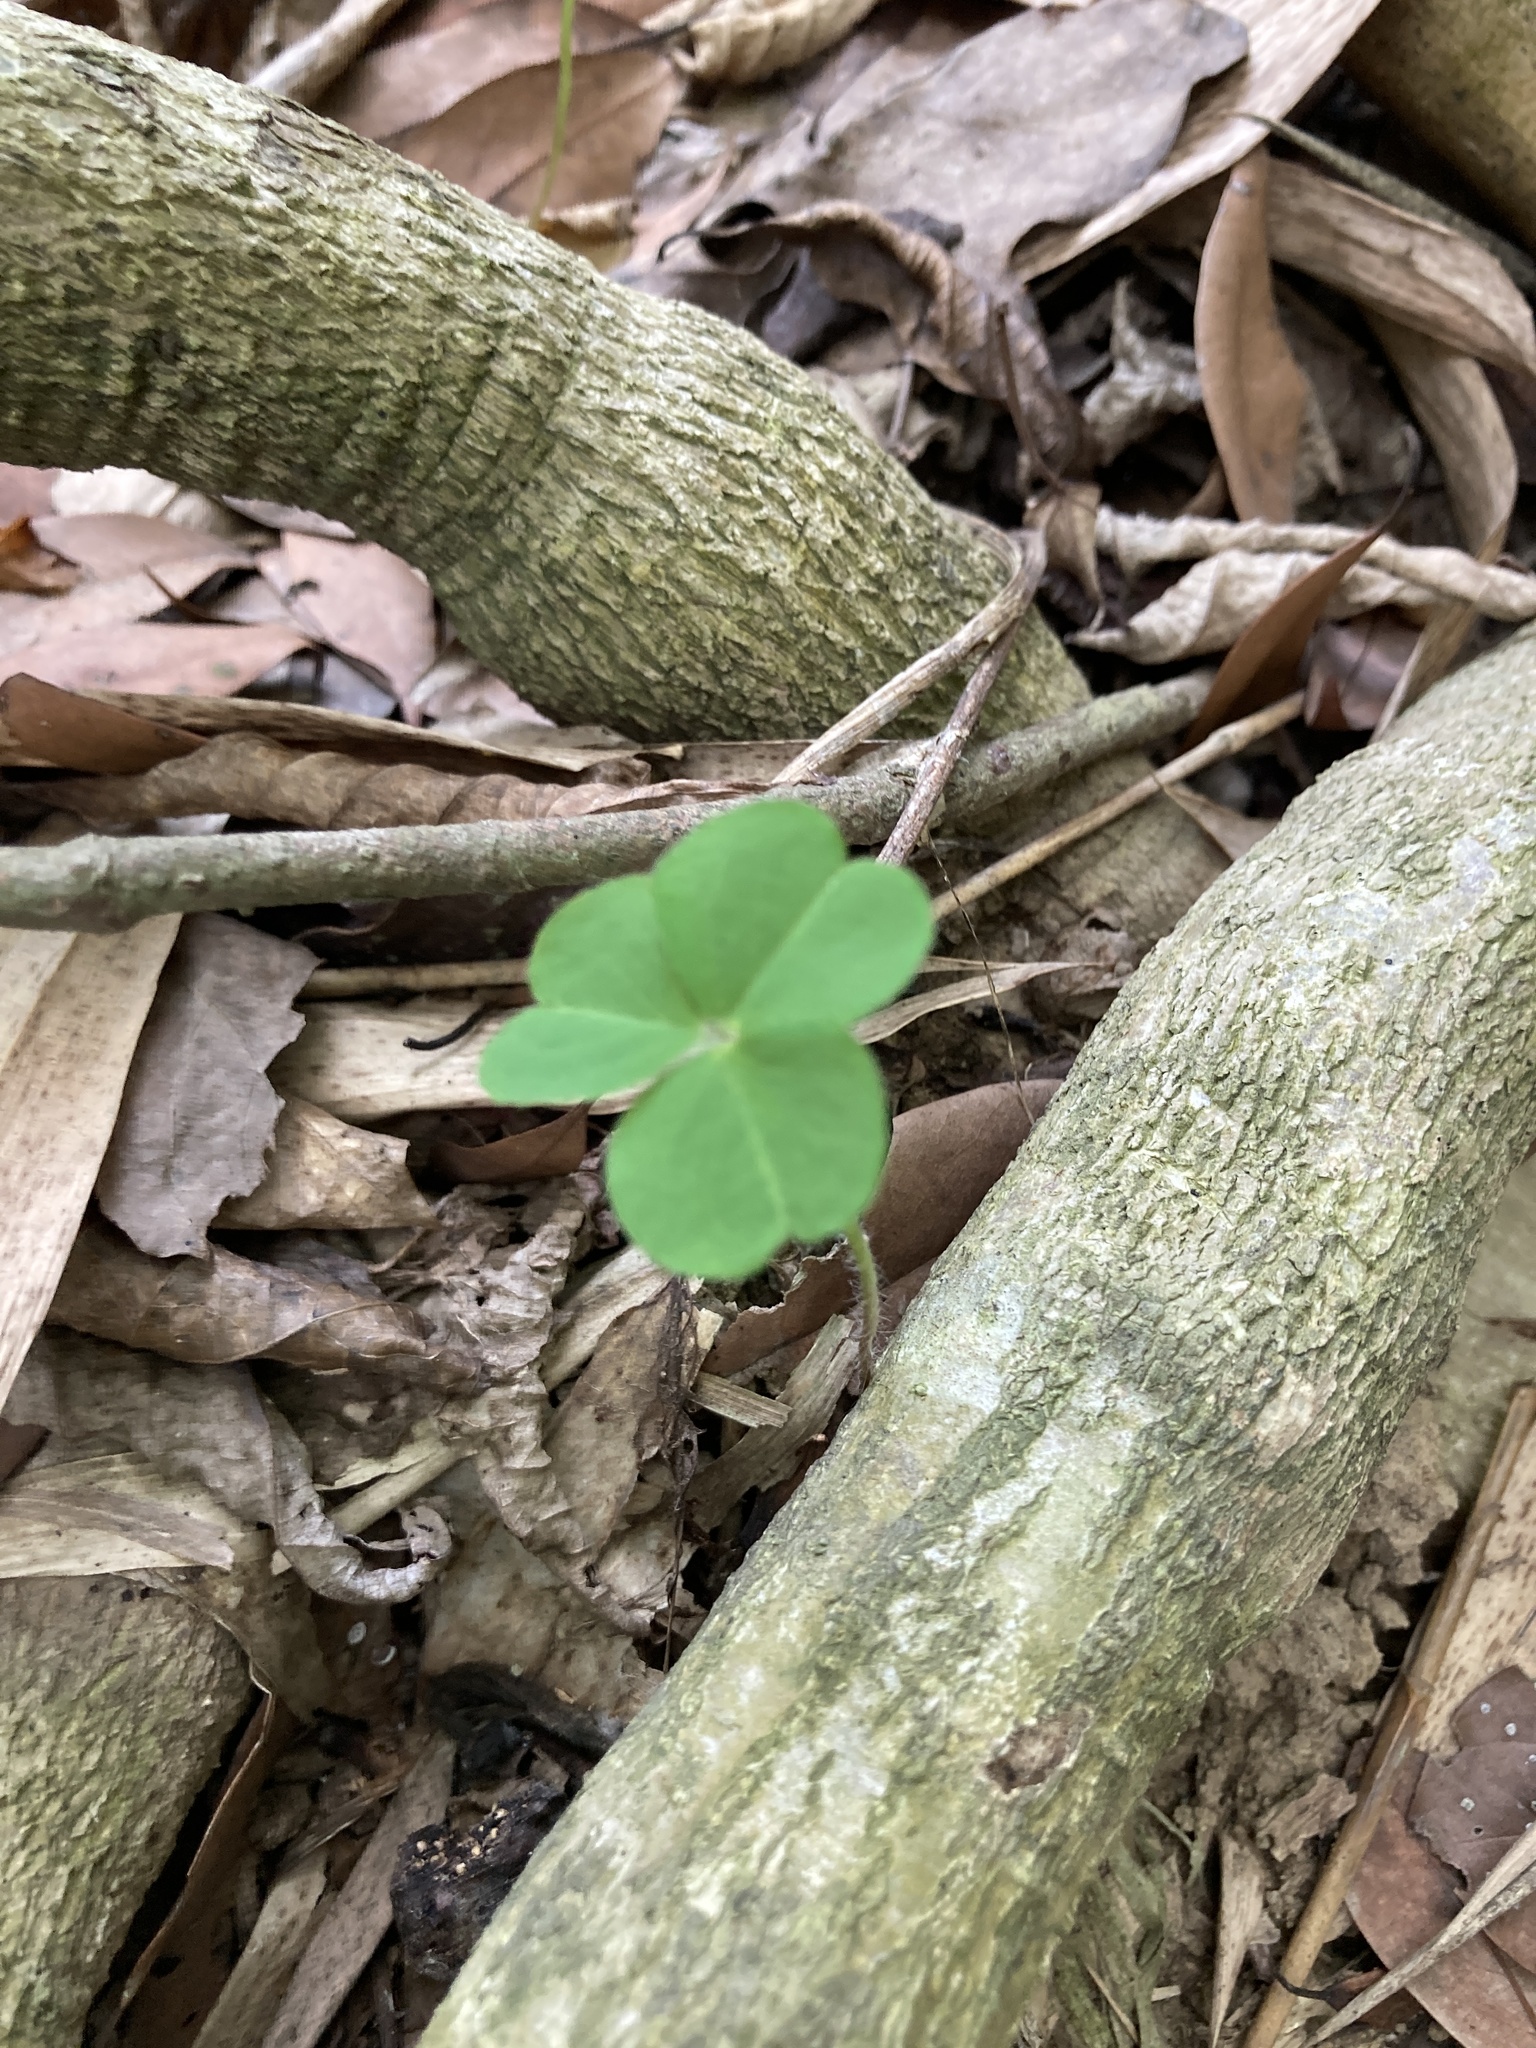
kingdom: Plantae
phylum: Tracheophyta
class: Magnoliopsida
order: Oxalidales
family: Oxalidaceae
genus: Oxalis
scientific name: Oxalis debilis
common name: Large-flowered pink-sorrel
